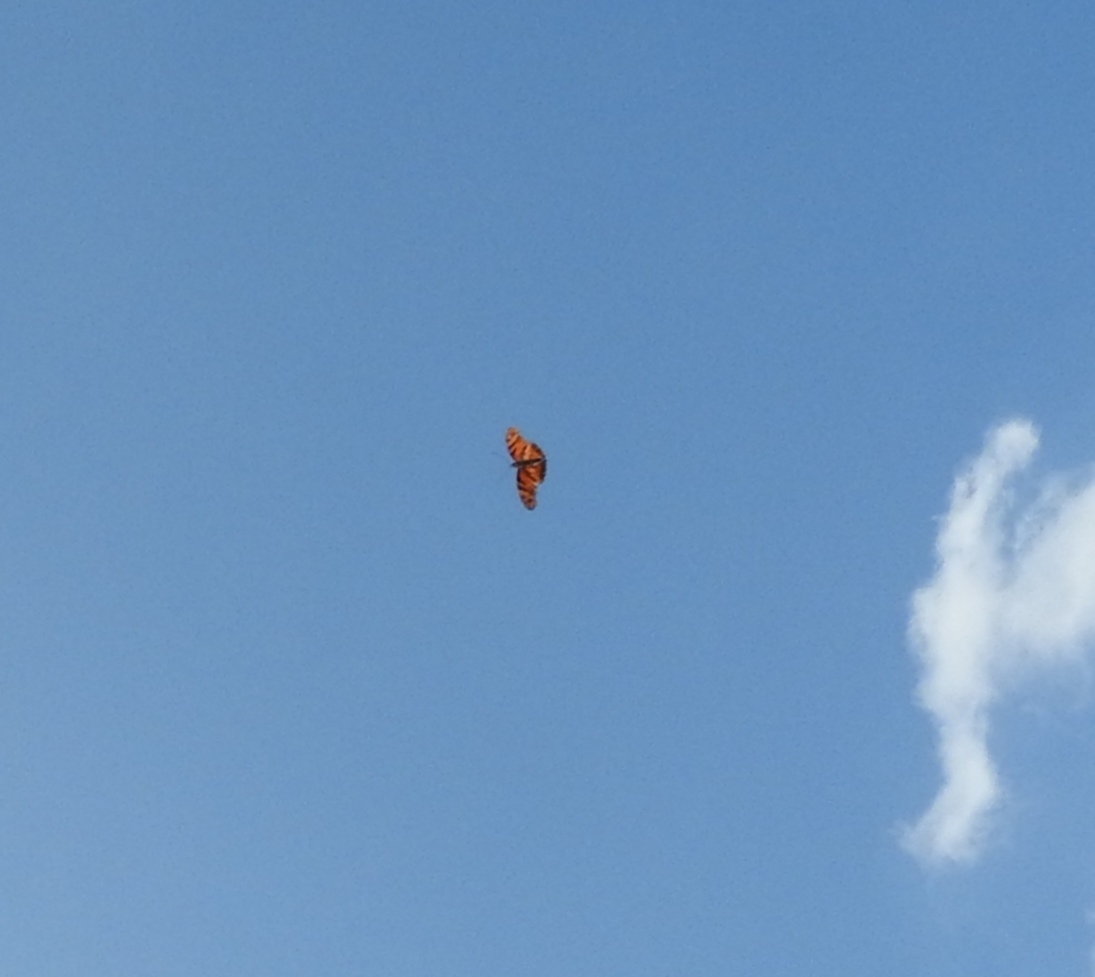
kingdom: Animalia
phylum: Arthropoda
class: Insecta
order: Lepidoptera
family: Nymphalidae
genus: Dione
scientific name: Dione juno
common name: Juno silverspot
